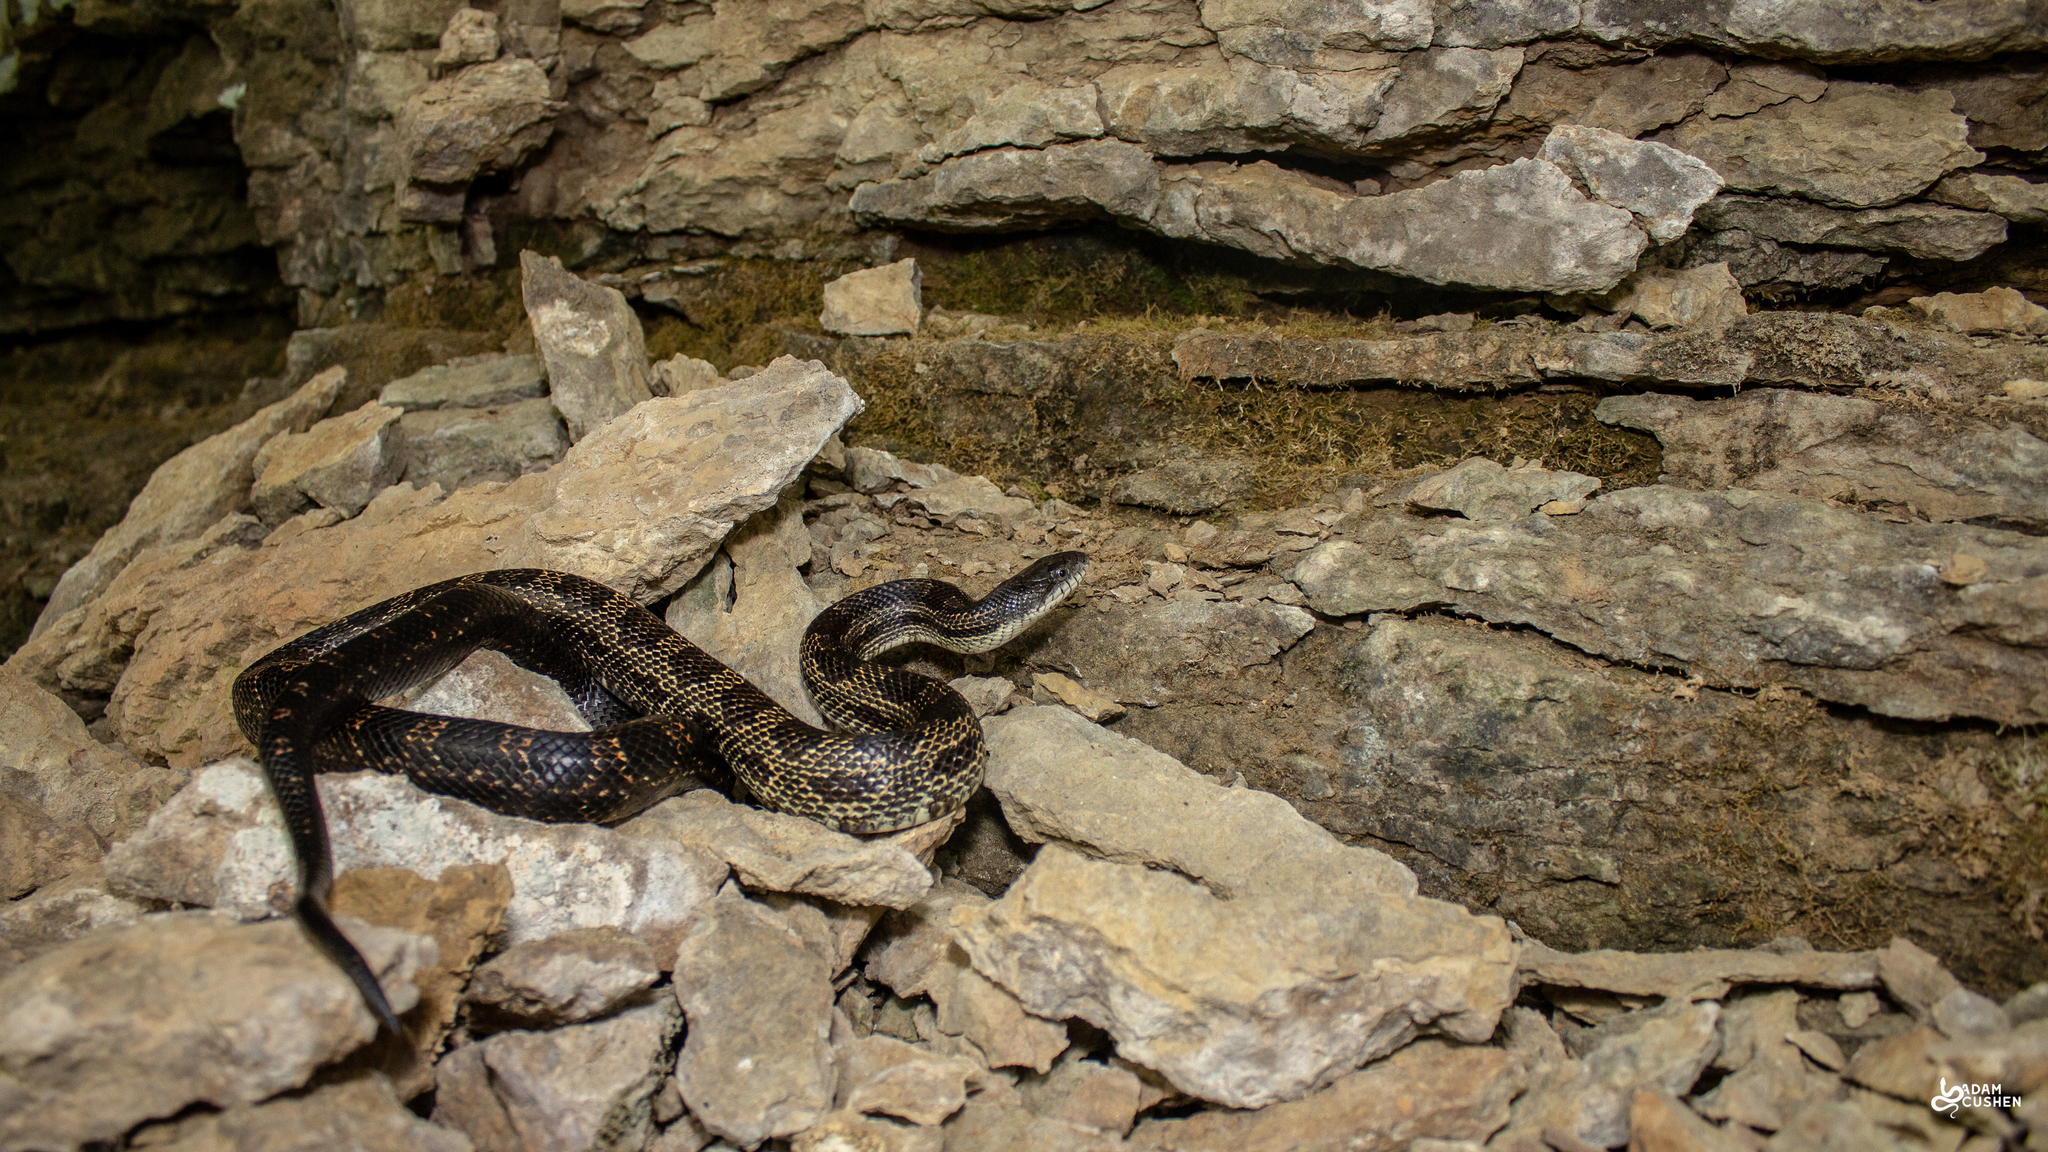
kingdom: Animalia
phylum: Chordata
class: Squamata
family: Colubridae
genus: Pantherophis
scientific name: Pantherophis spiloides
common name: Gray rat snake
